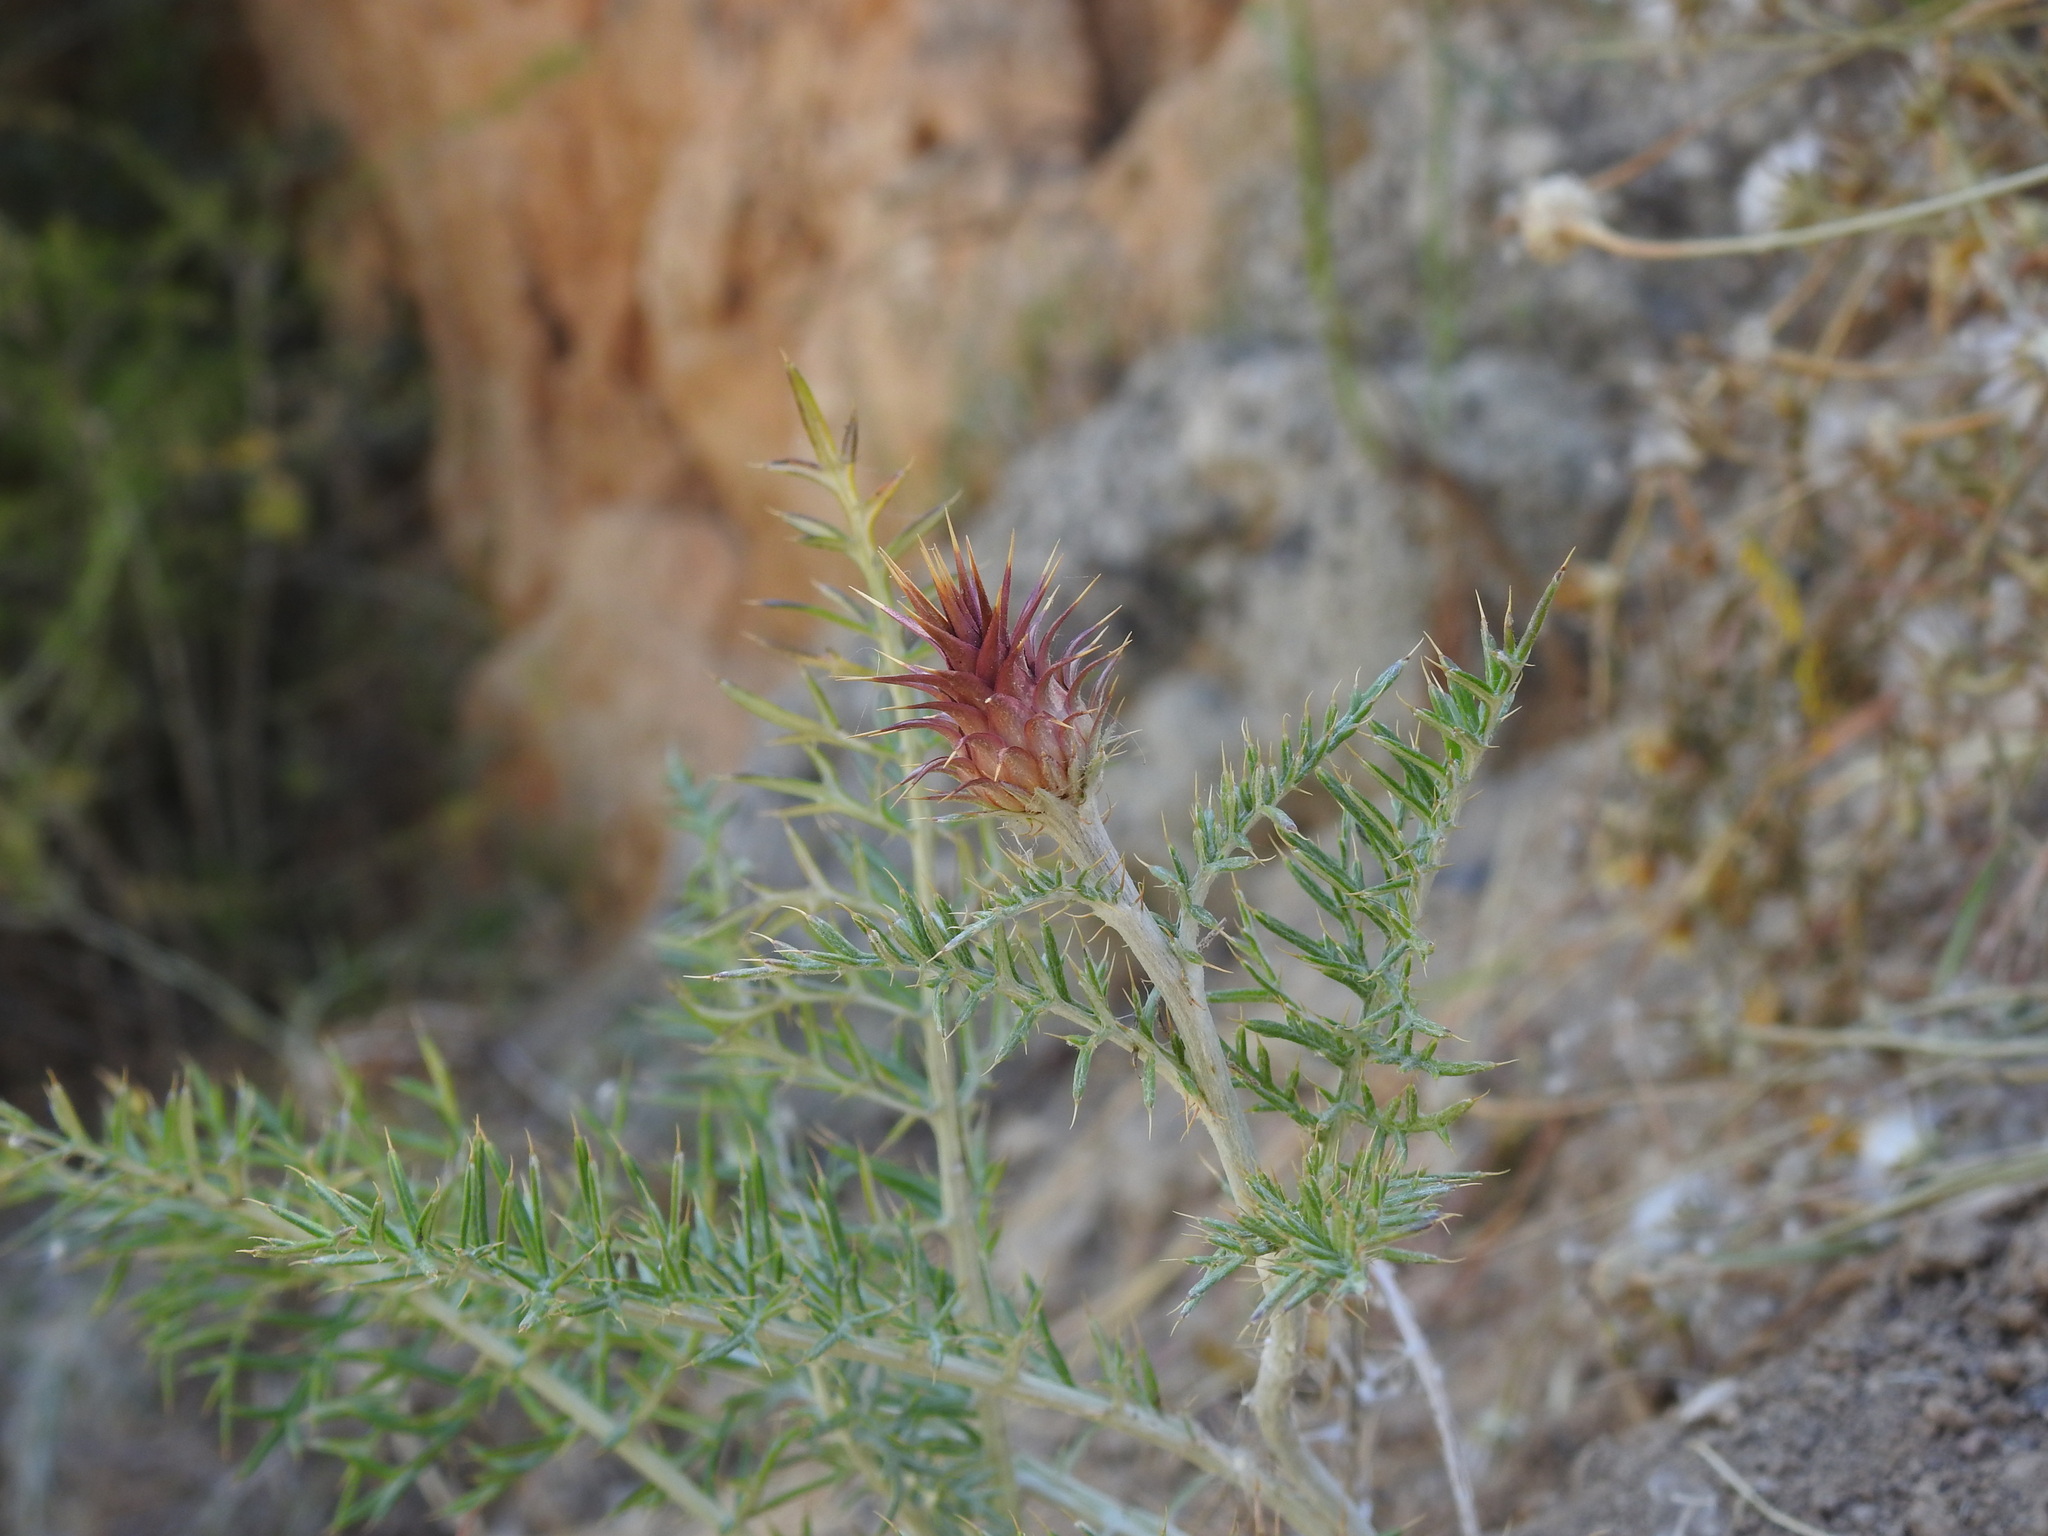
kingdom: Plantae
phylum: Tracheophyta
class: Magnoliopsida
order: Asterales
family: Asteraceae
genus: Cynara
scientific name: Cynara humilis
